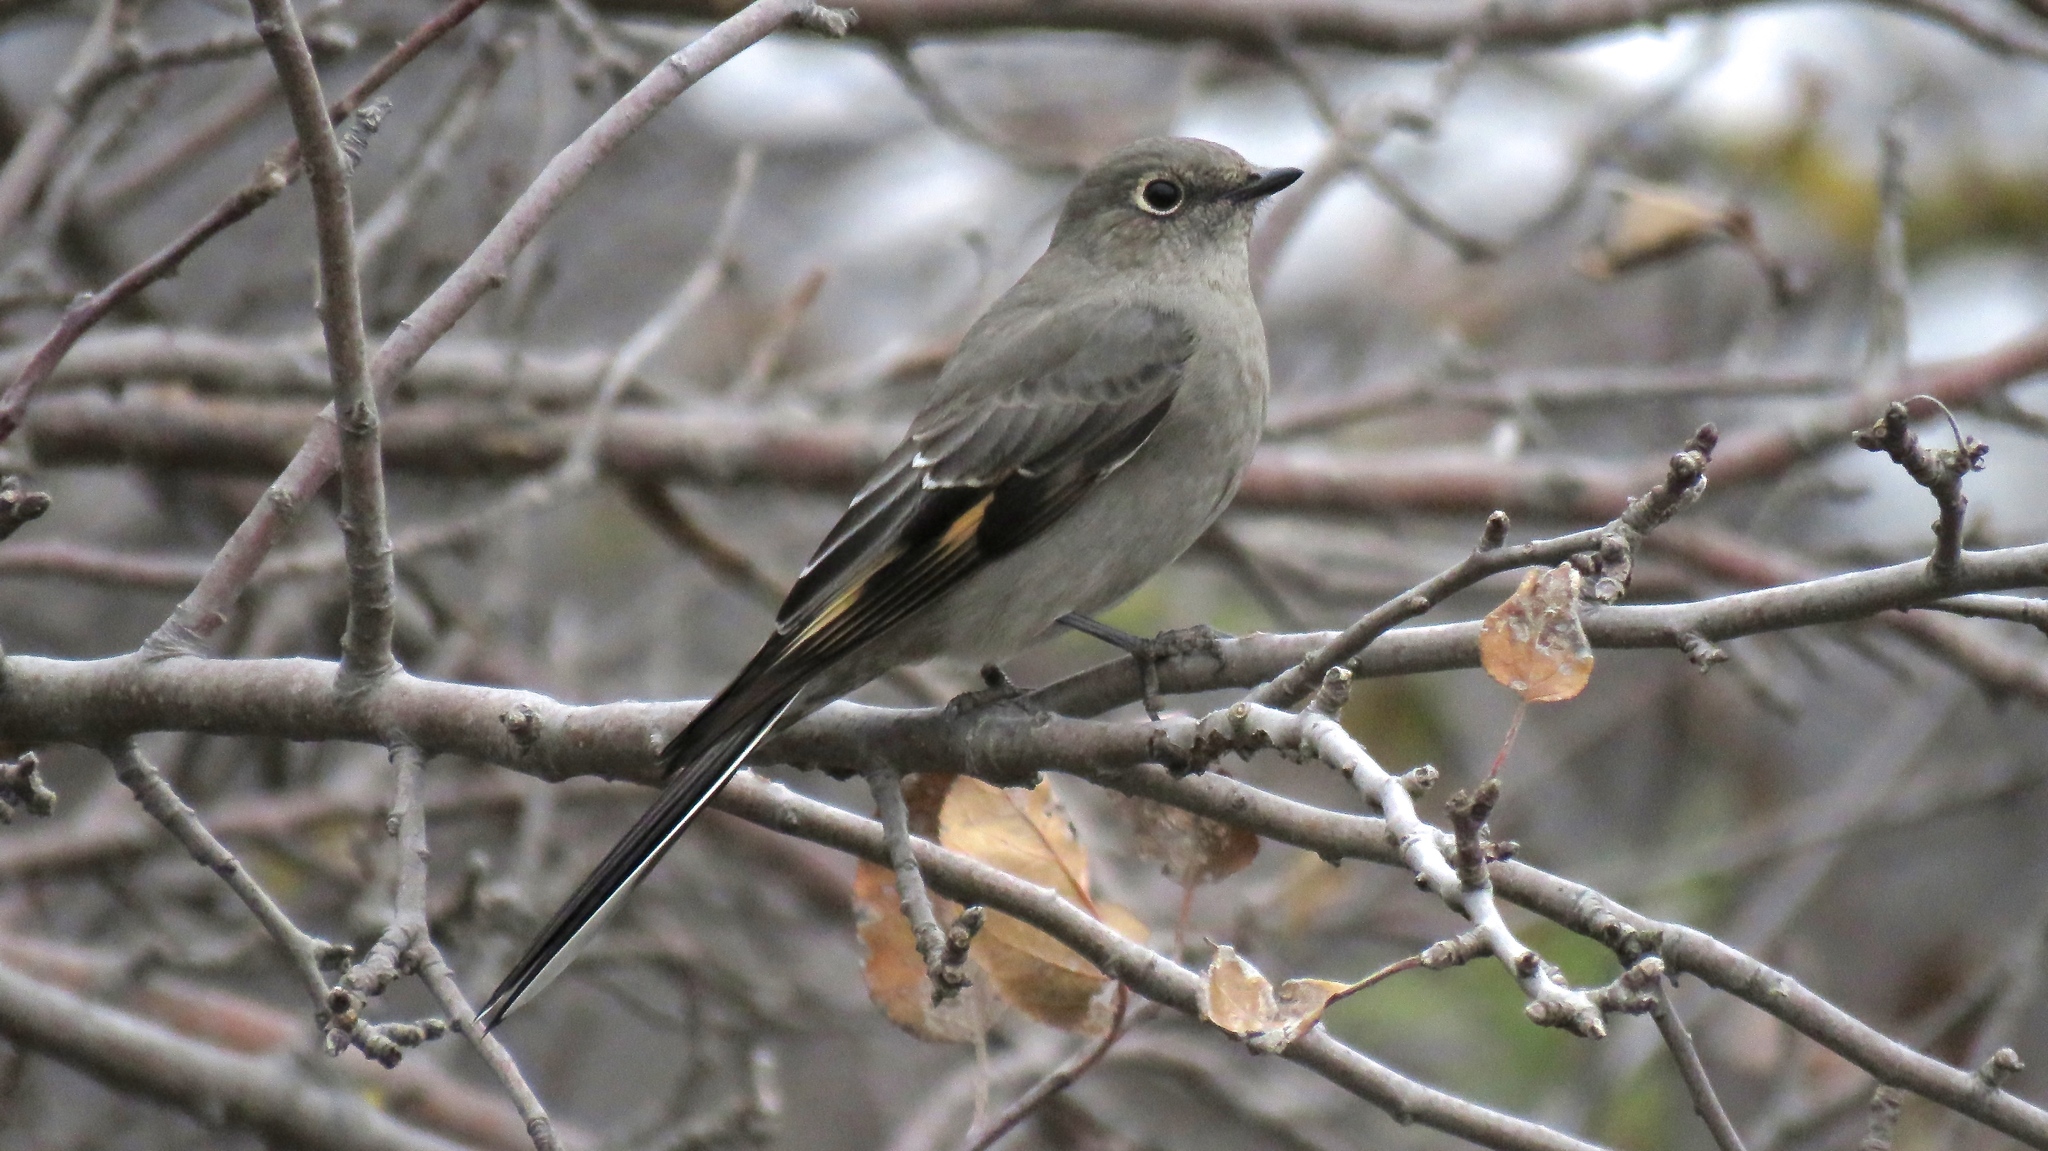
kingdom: Animalia
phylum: Chordata
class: Aves
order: Passeriformes
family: Turdidae
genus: Myadestes
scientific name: Myadestes townsendi
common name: Townsend's solitaire
